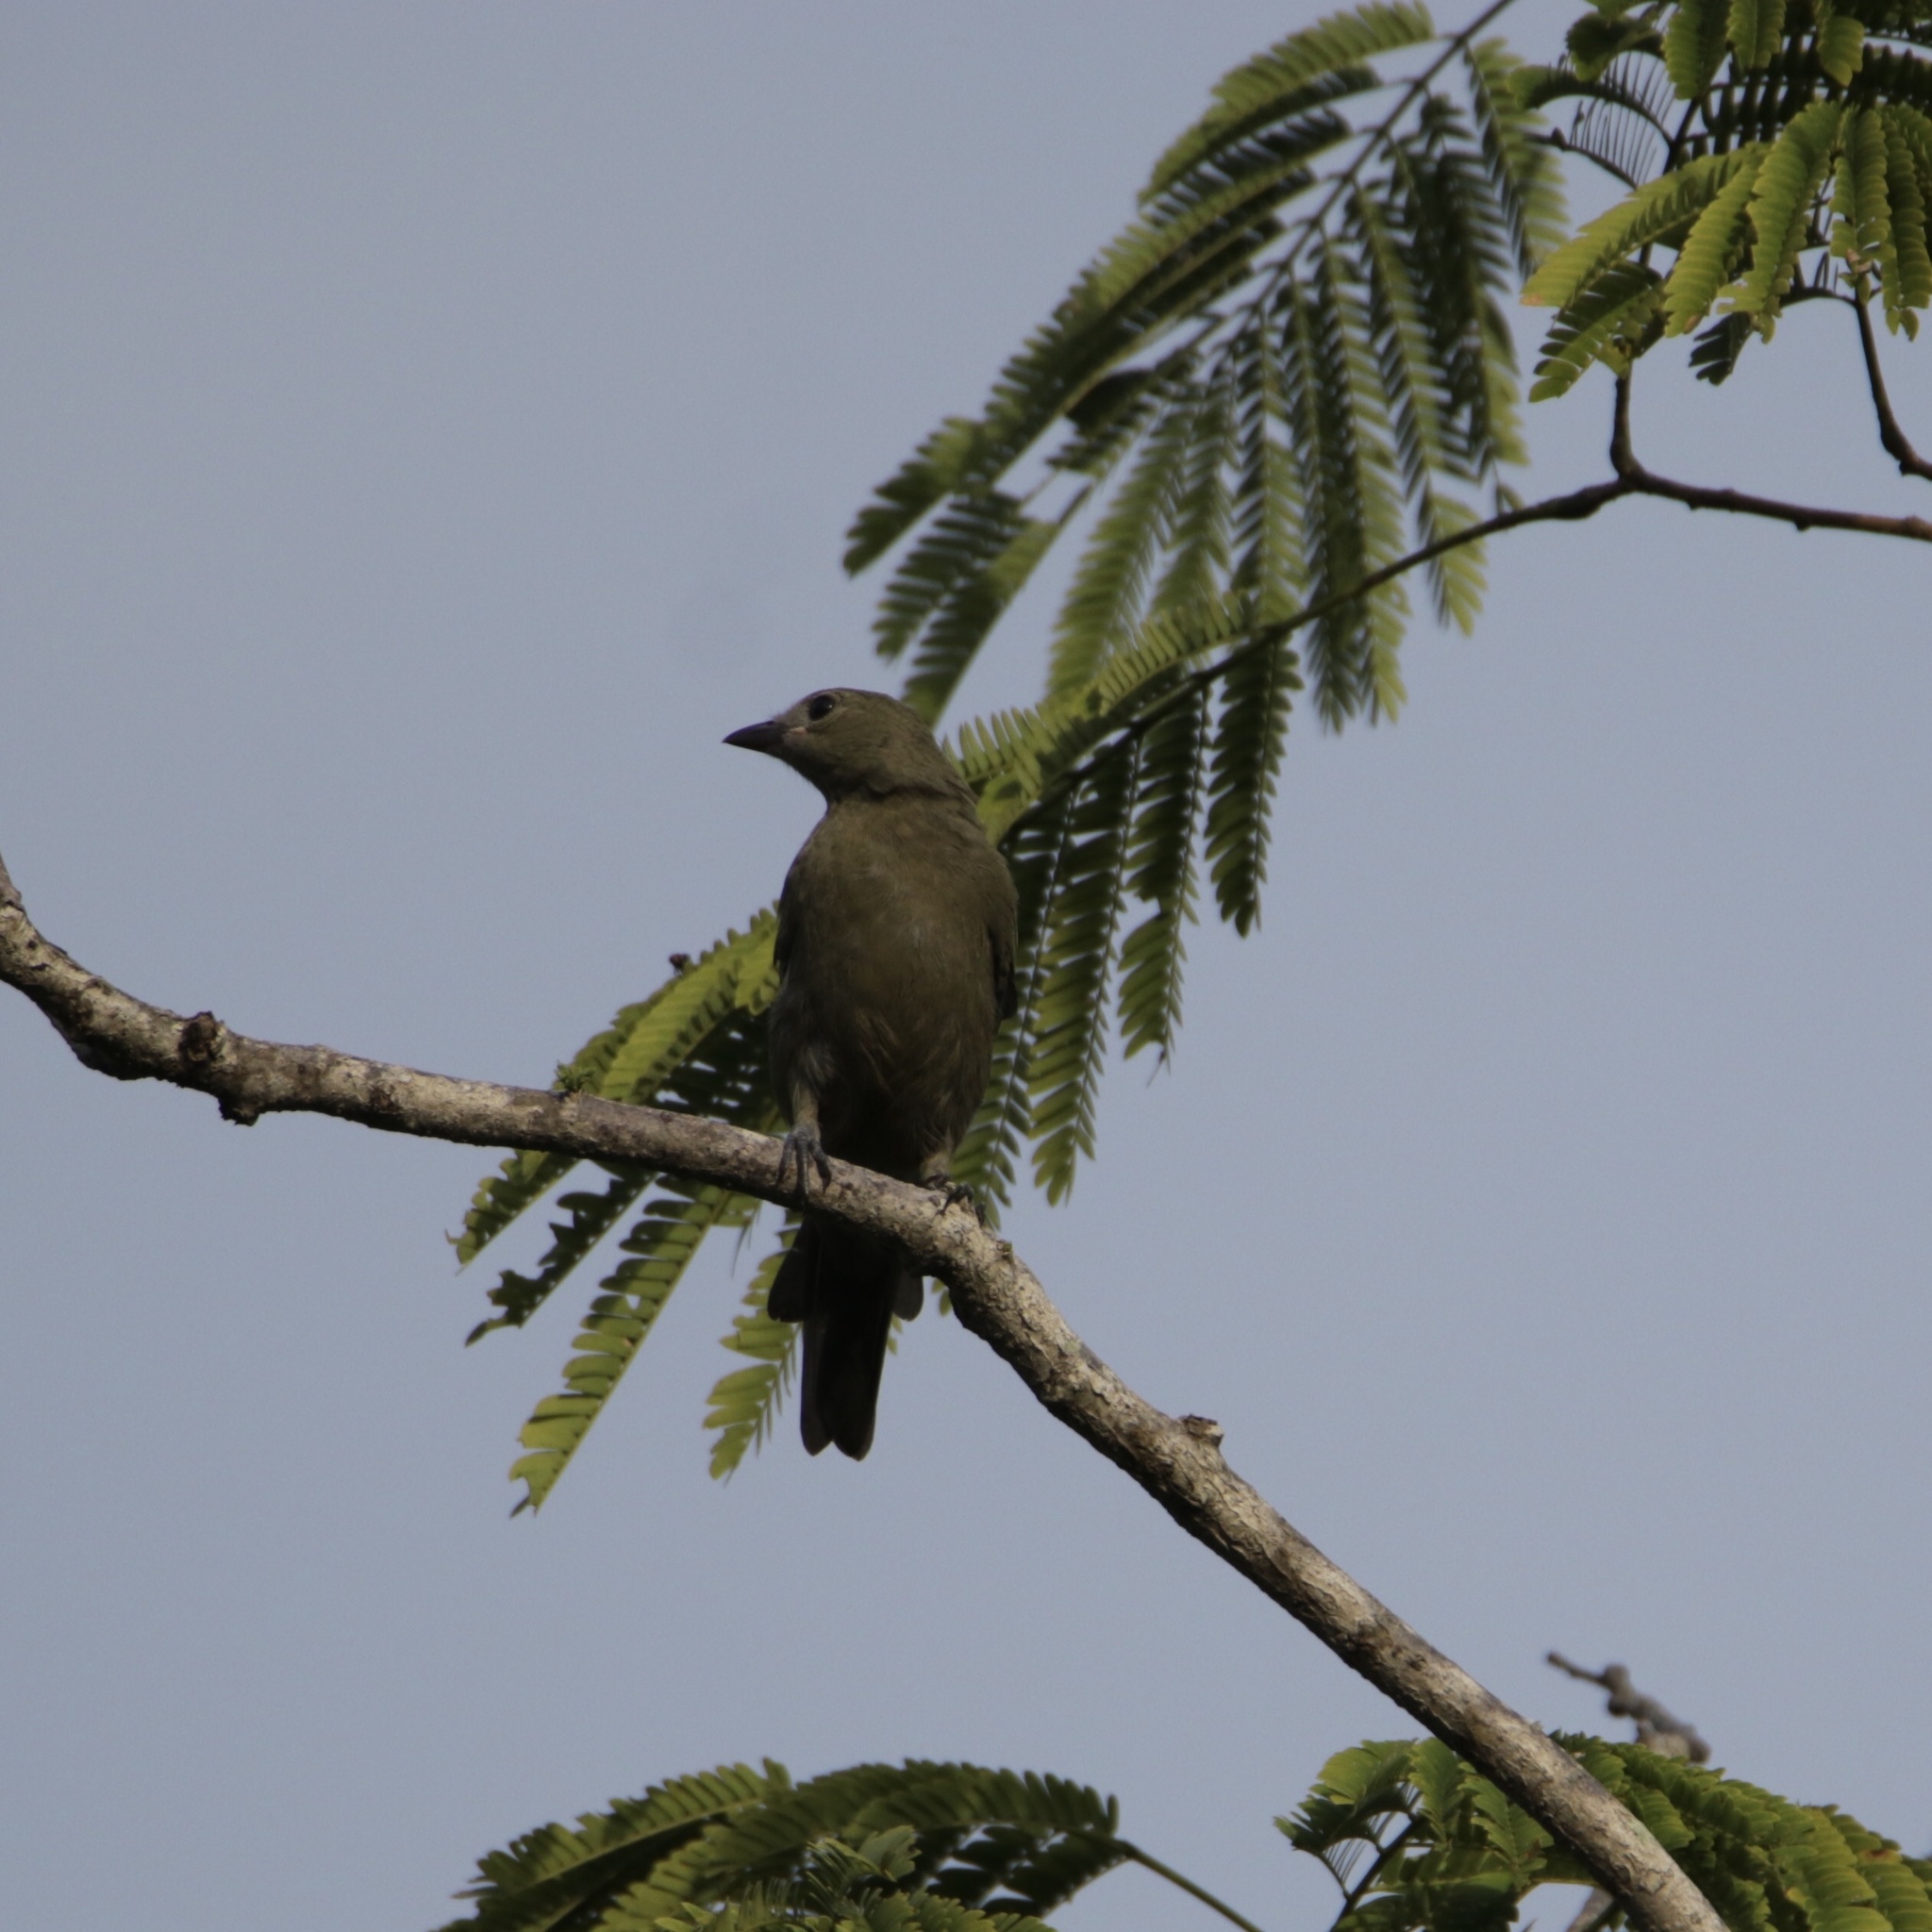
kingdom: Animalia
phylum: Chordata
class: Aves
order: Passeriformes
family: Thraupidae
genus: Thraupis
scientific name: Thraupis palmarum
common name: Palm tanager
